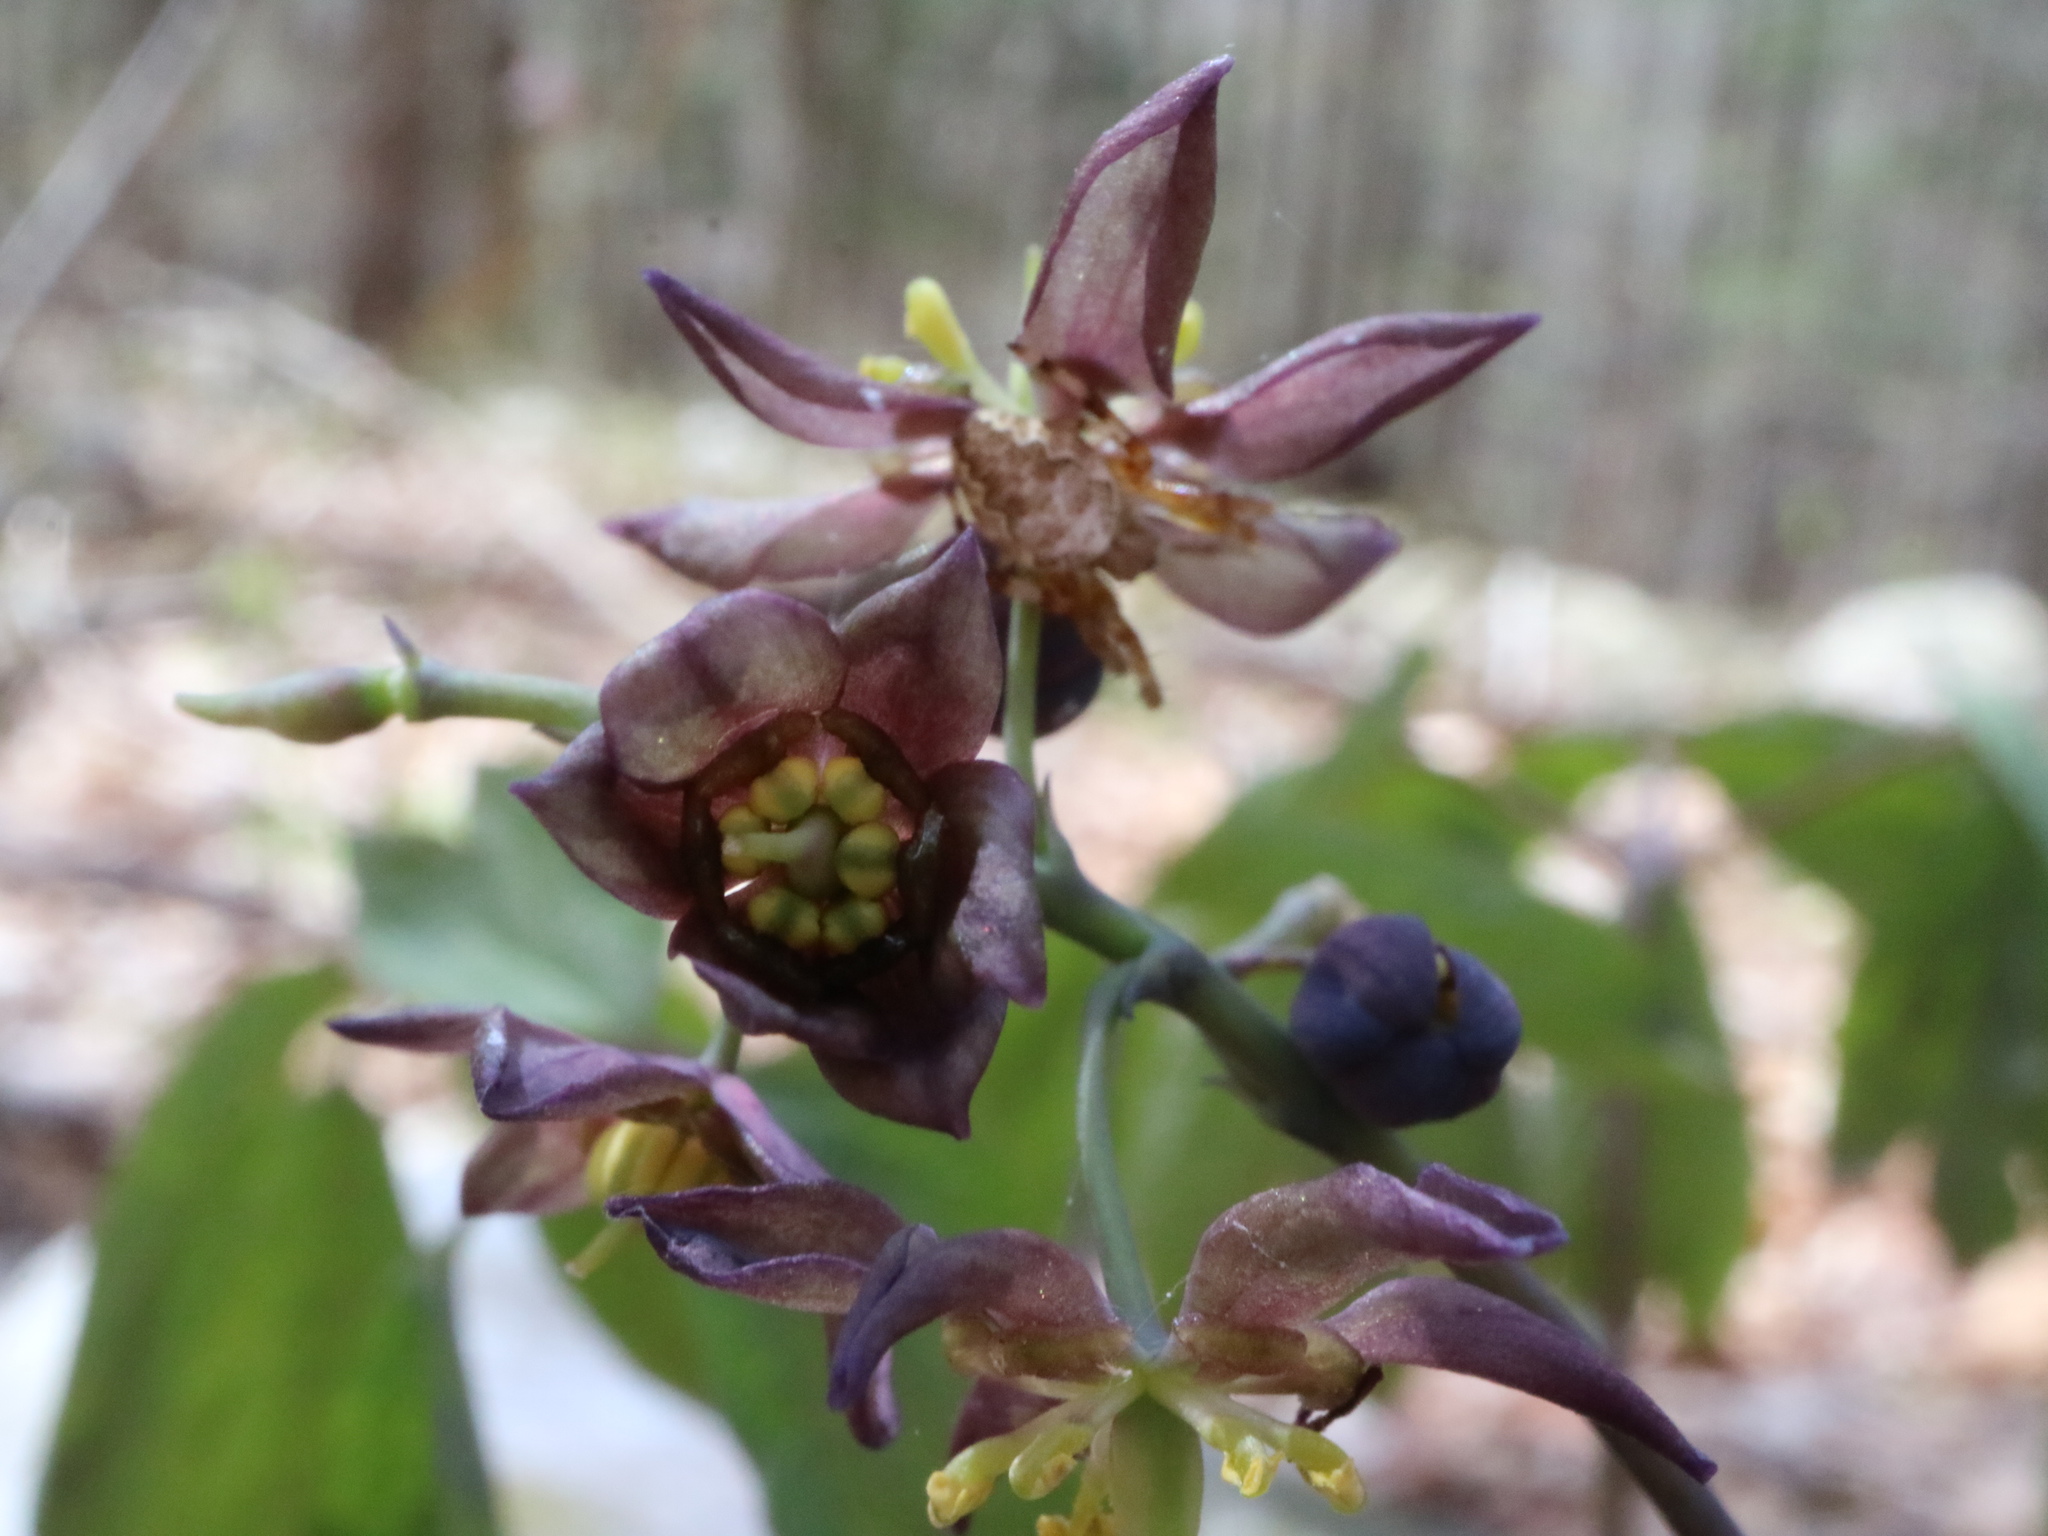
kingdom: Plantae
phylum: Tracheophyta
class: Magnoliopsida
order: Ranunculales
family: Berberidaceae
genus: Caulophyllum
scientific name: Caulophyllum giganteum
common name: Blue cohosh
